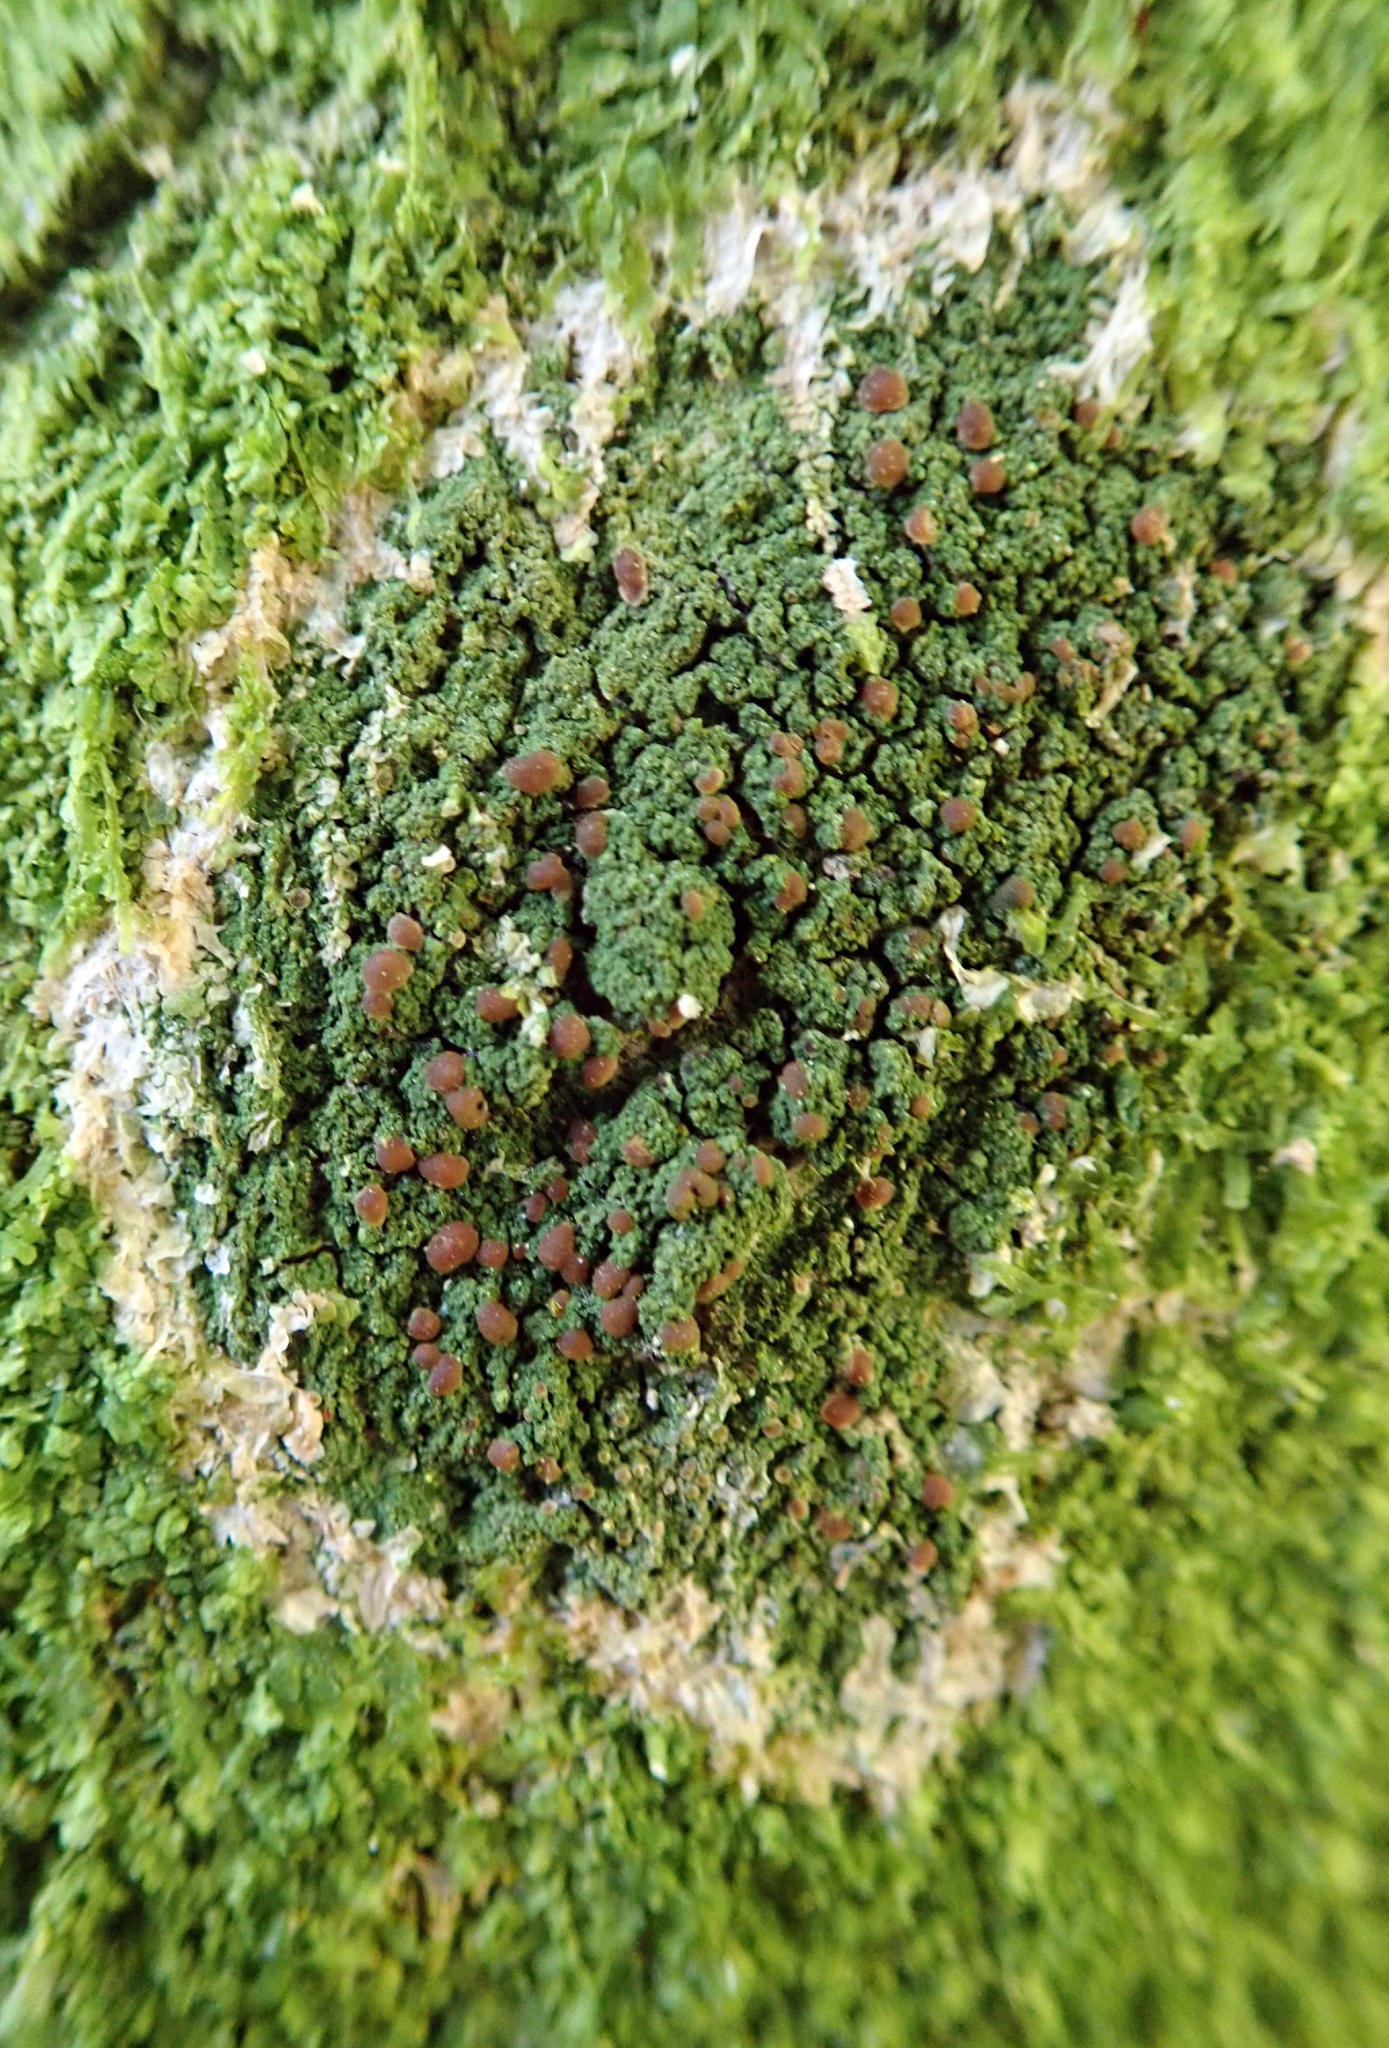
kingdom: Fungi
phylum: Ascomycota
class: Lecanoromycetes
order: Lecanorales
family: Ramalinaceae
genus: Phyllopsora
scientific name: Phyllopsora corallina
